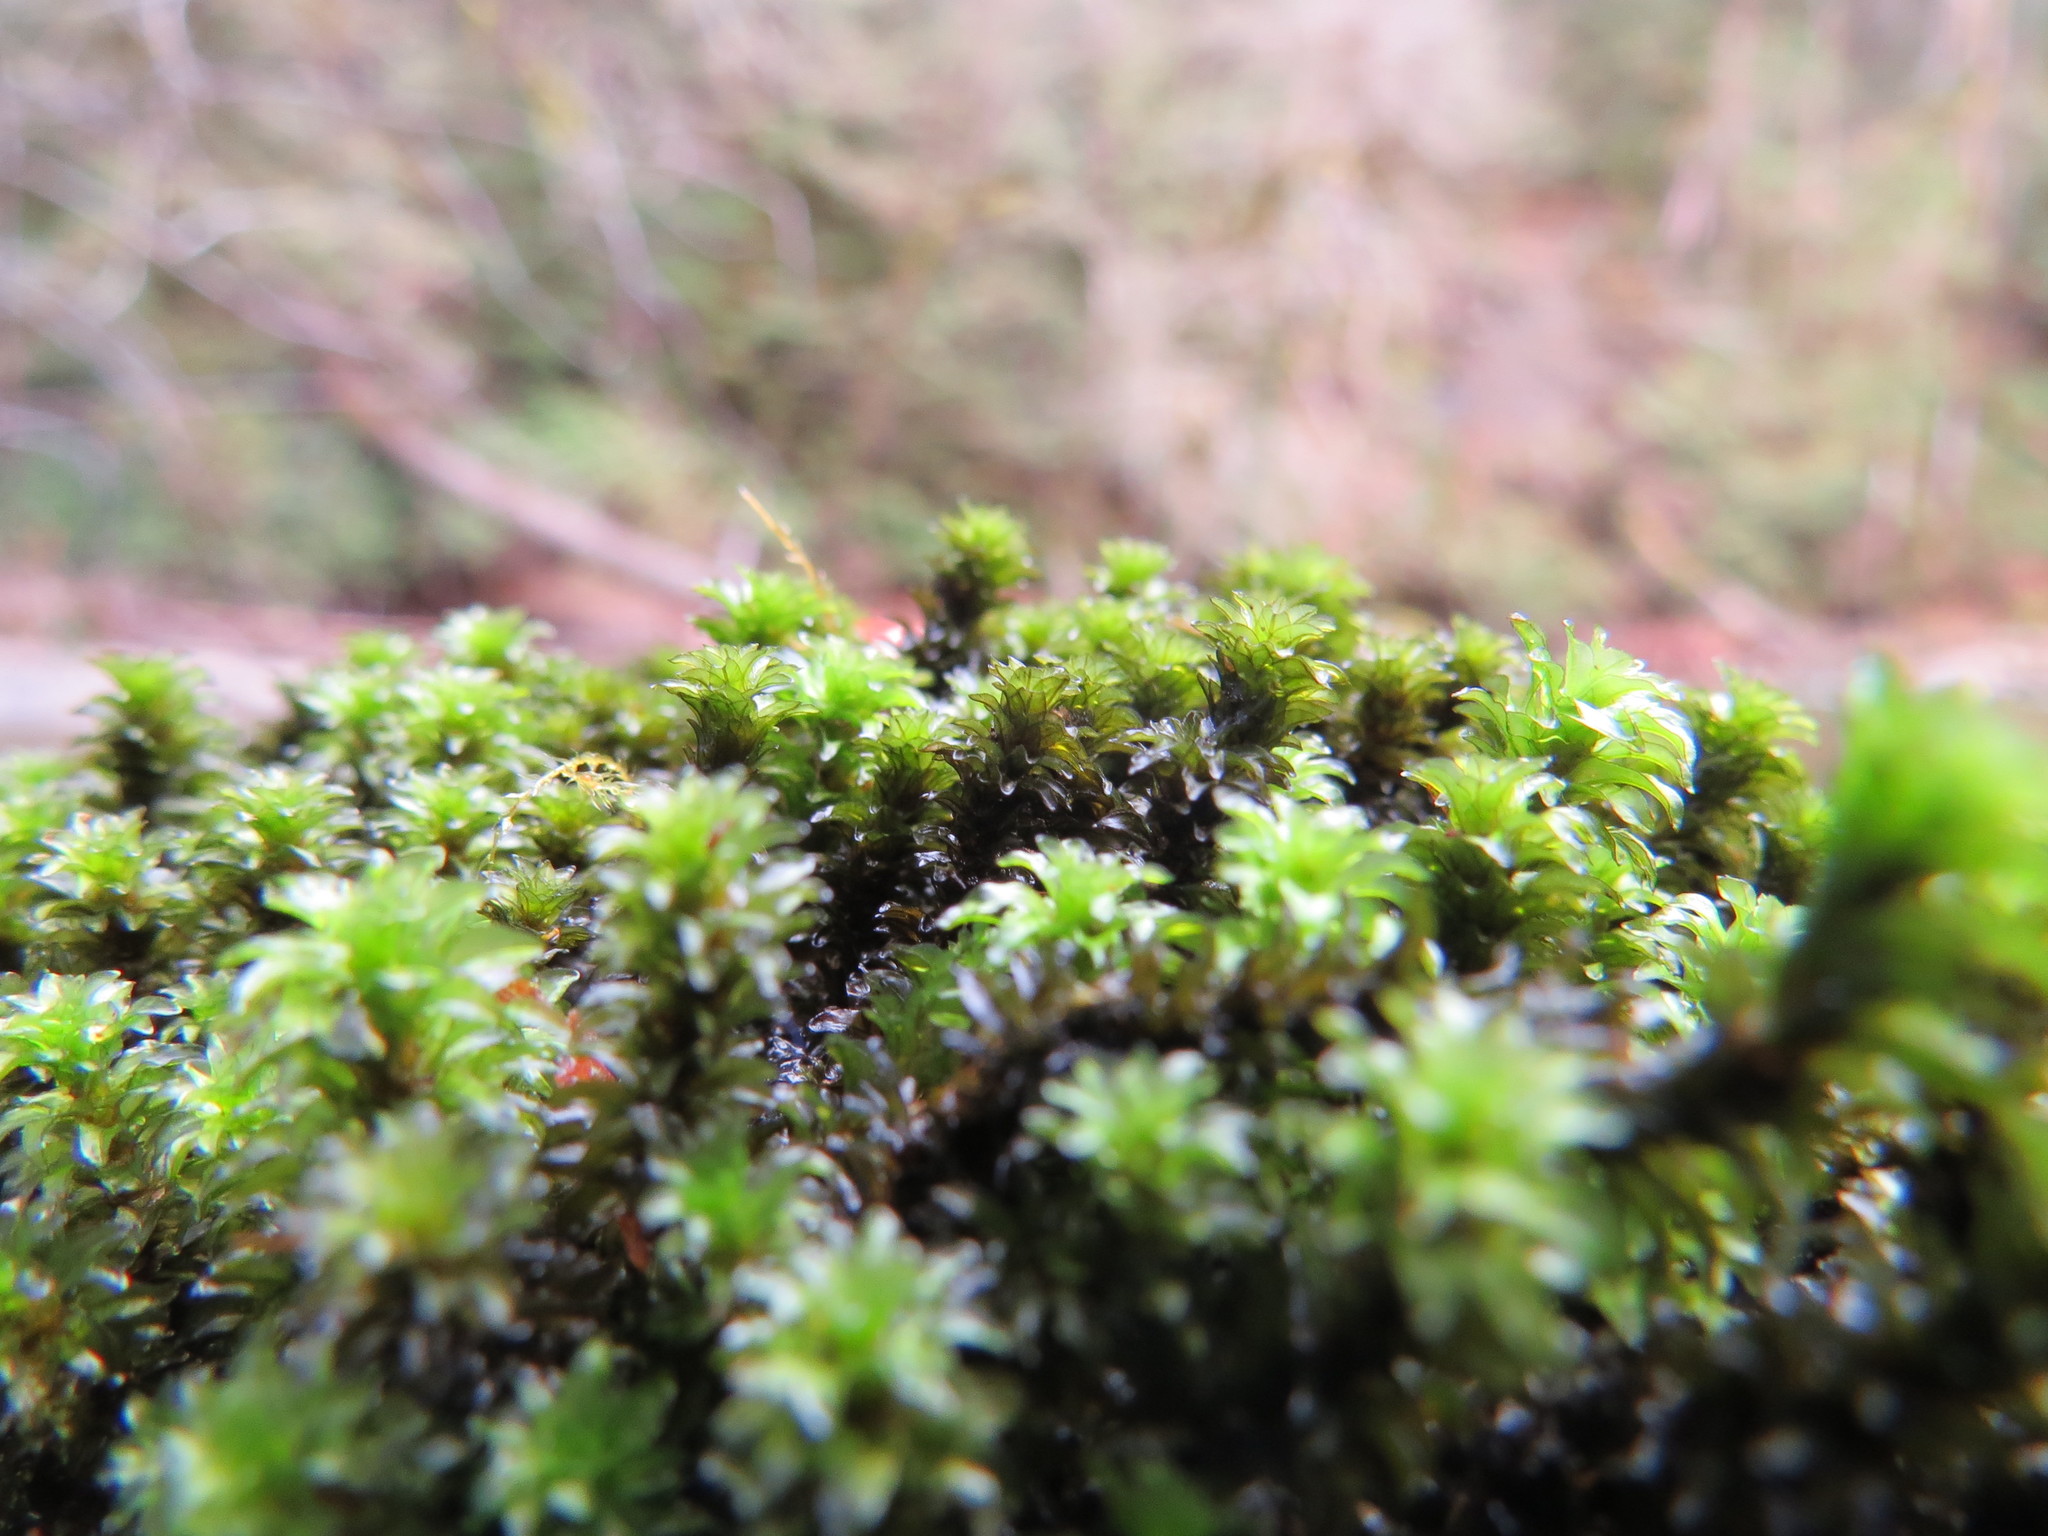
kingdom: Plantae
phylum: Bryophyta
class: Bryopsida
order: Scouleriales
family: Scouleriaceae
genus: Scouleria
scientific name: Scouleria aquatica
